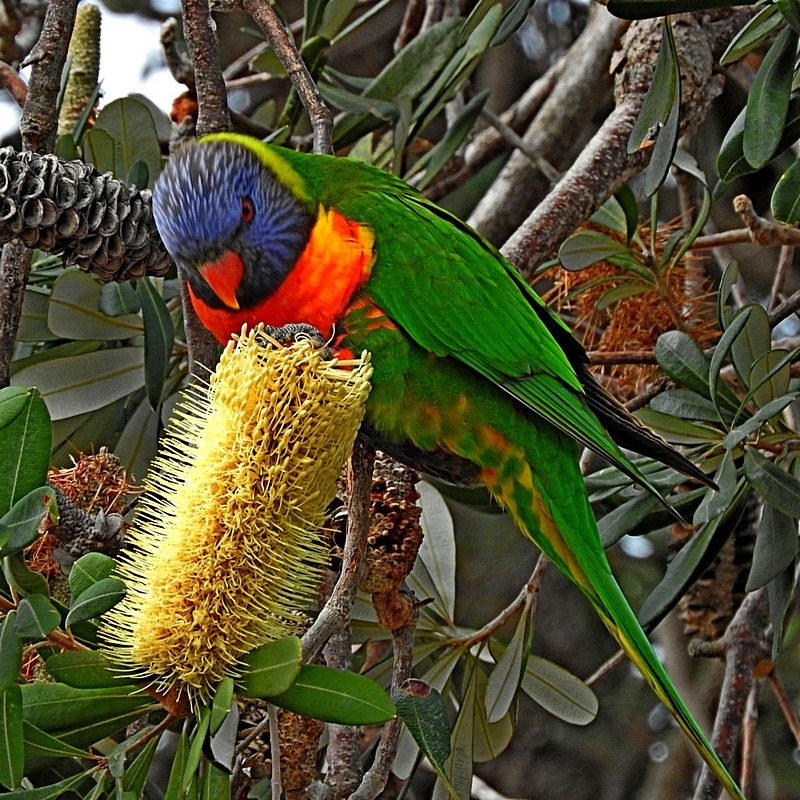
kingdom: Animalia
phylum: Chordata
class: Aves
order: Psittaciformes
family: Psittacidae
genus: Trichoglossus
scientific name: Trichoglossus haematodus
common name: Coconut lorikeet
